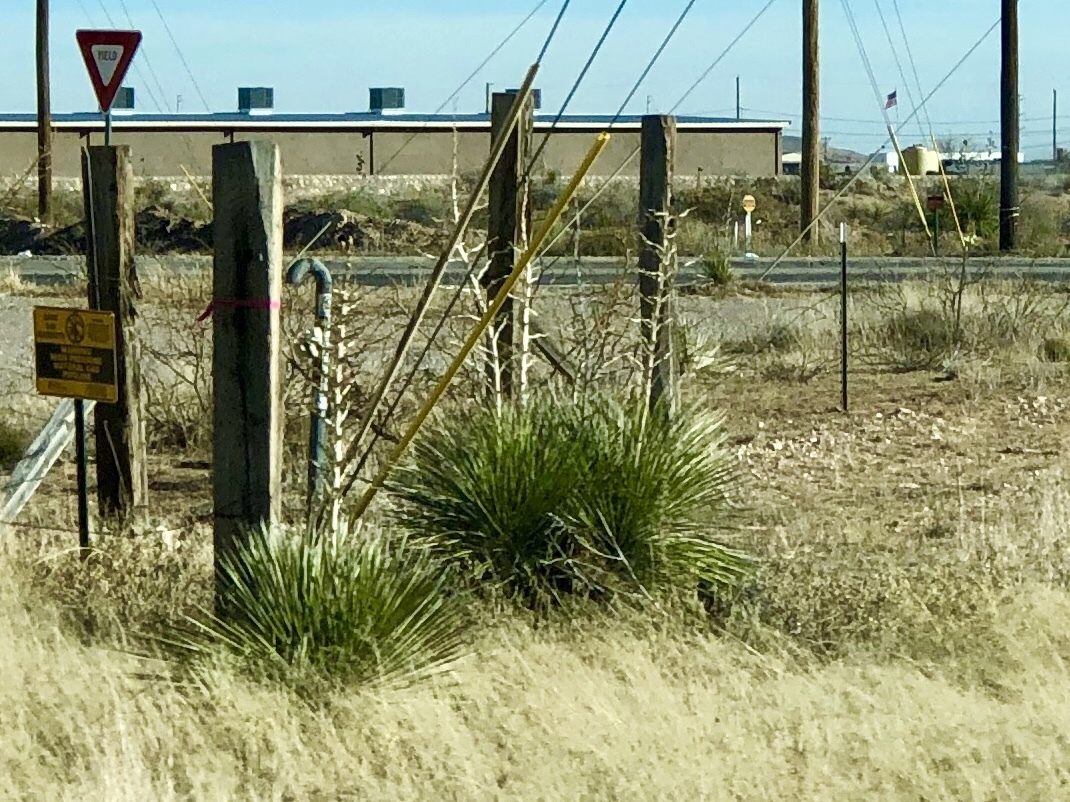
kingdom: Plantae
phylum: Tracheophyta
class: Liliopsida
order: Asparagales
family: Asparagaceae
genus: Yucca
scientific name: Yucca elata
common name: Palmella
